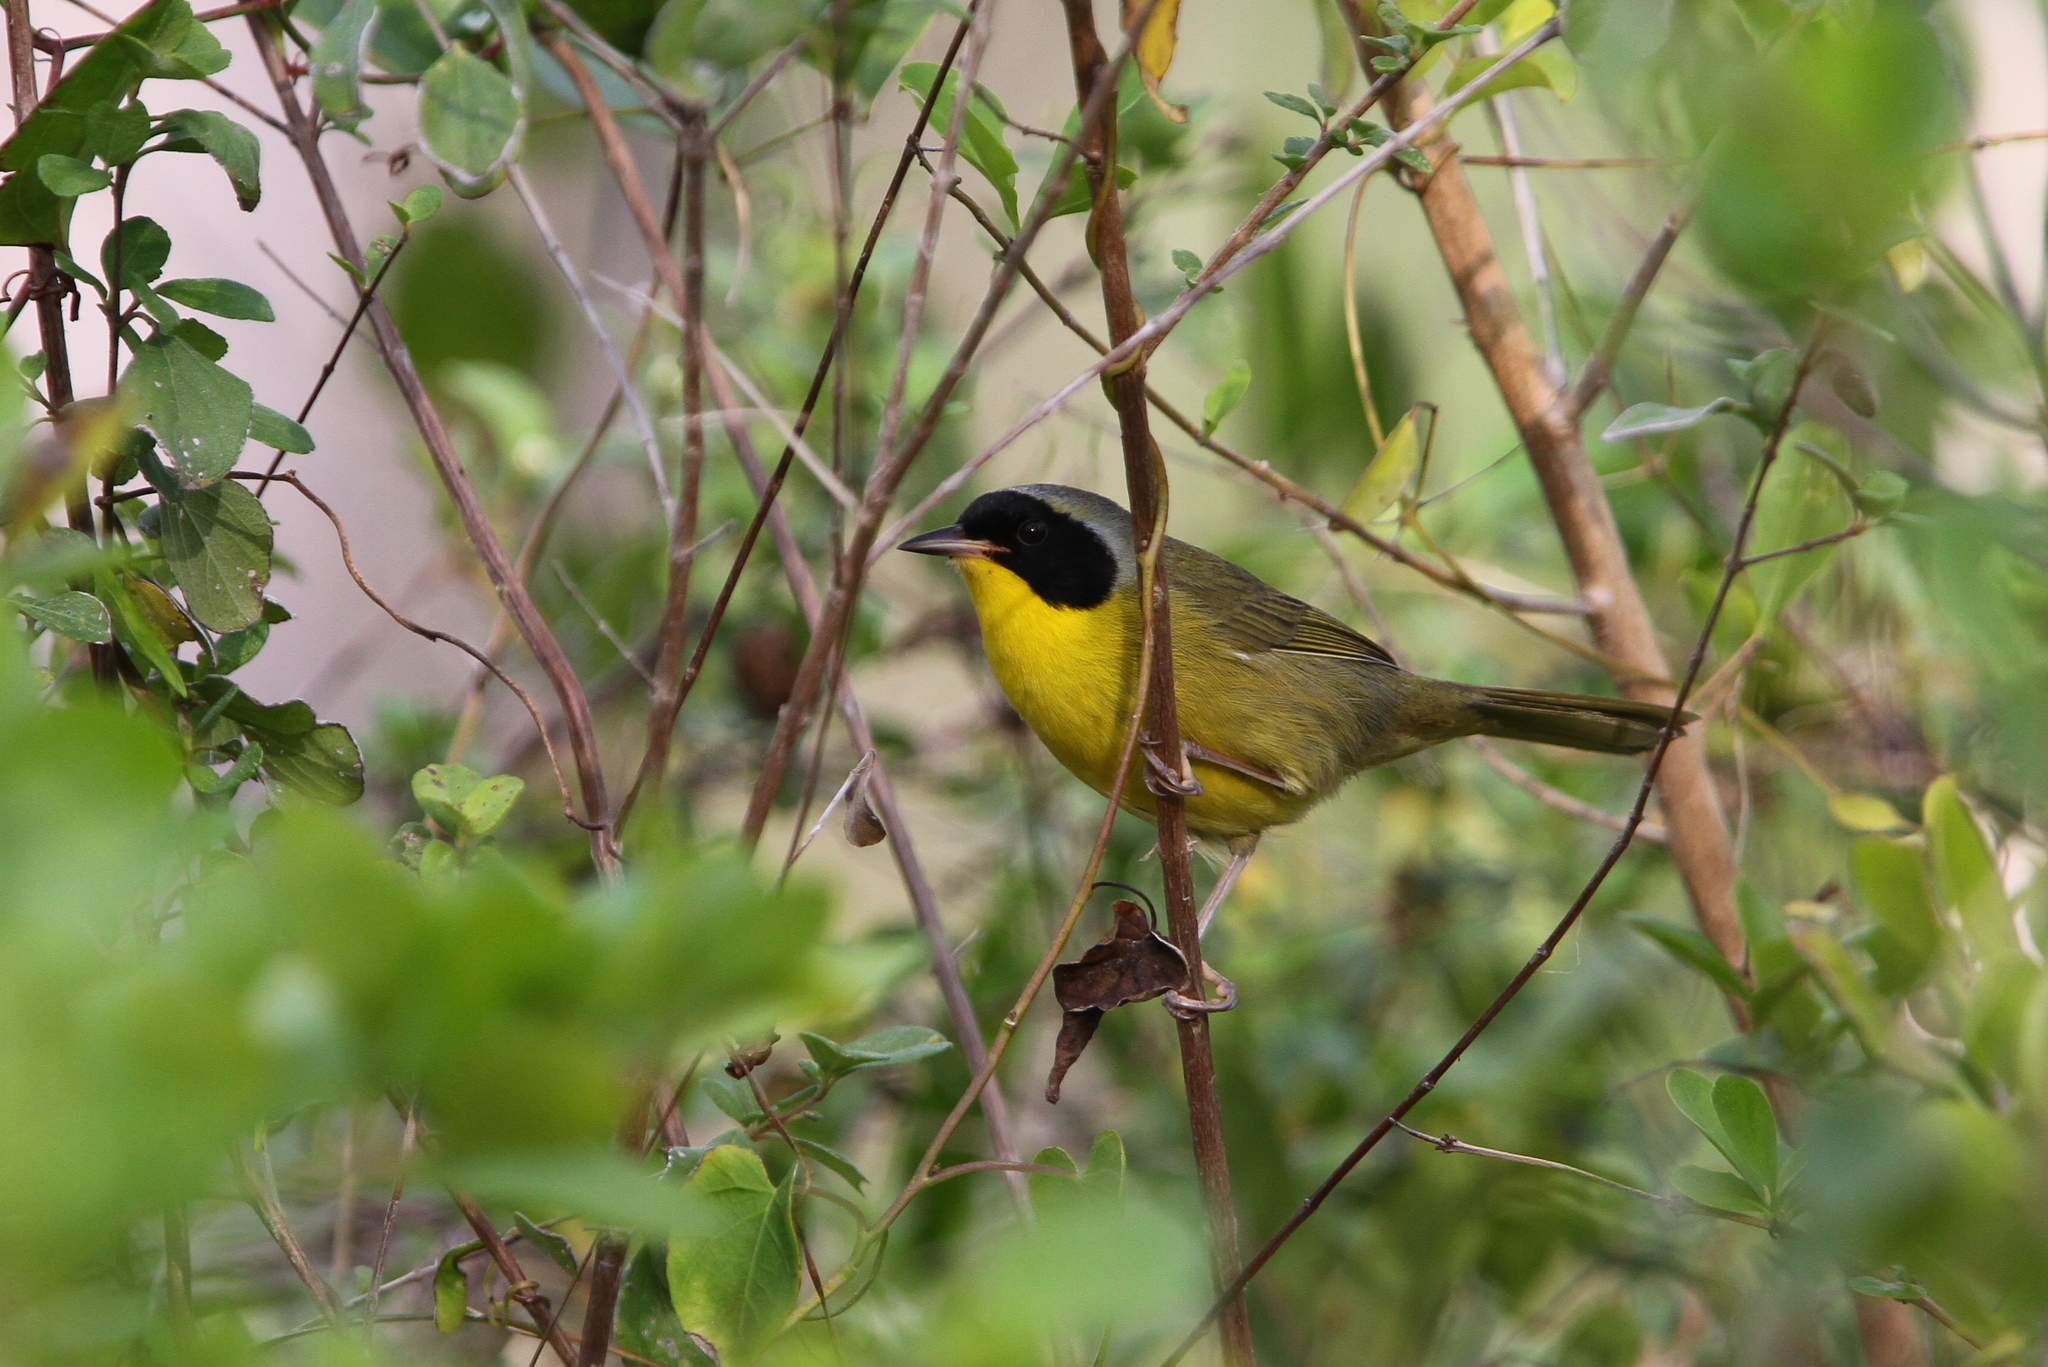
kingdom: Animalia
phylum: Chordata
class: Aves
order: Passeriformes
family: Parulidae
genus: Geothlypis
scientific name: Geothlypis rostrata
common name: Bahama yellowthroat
